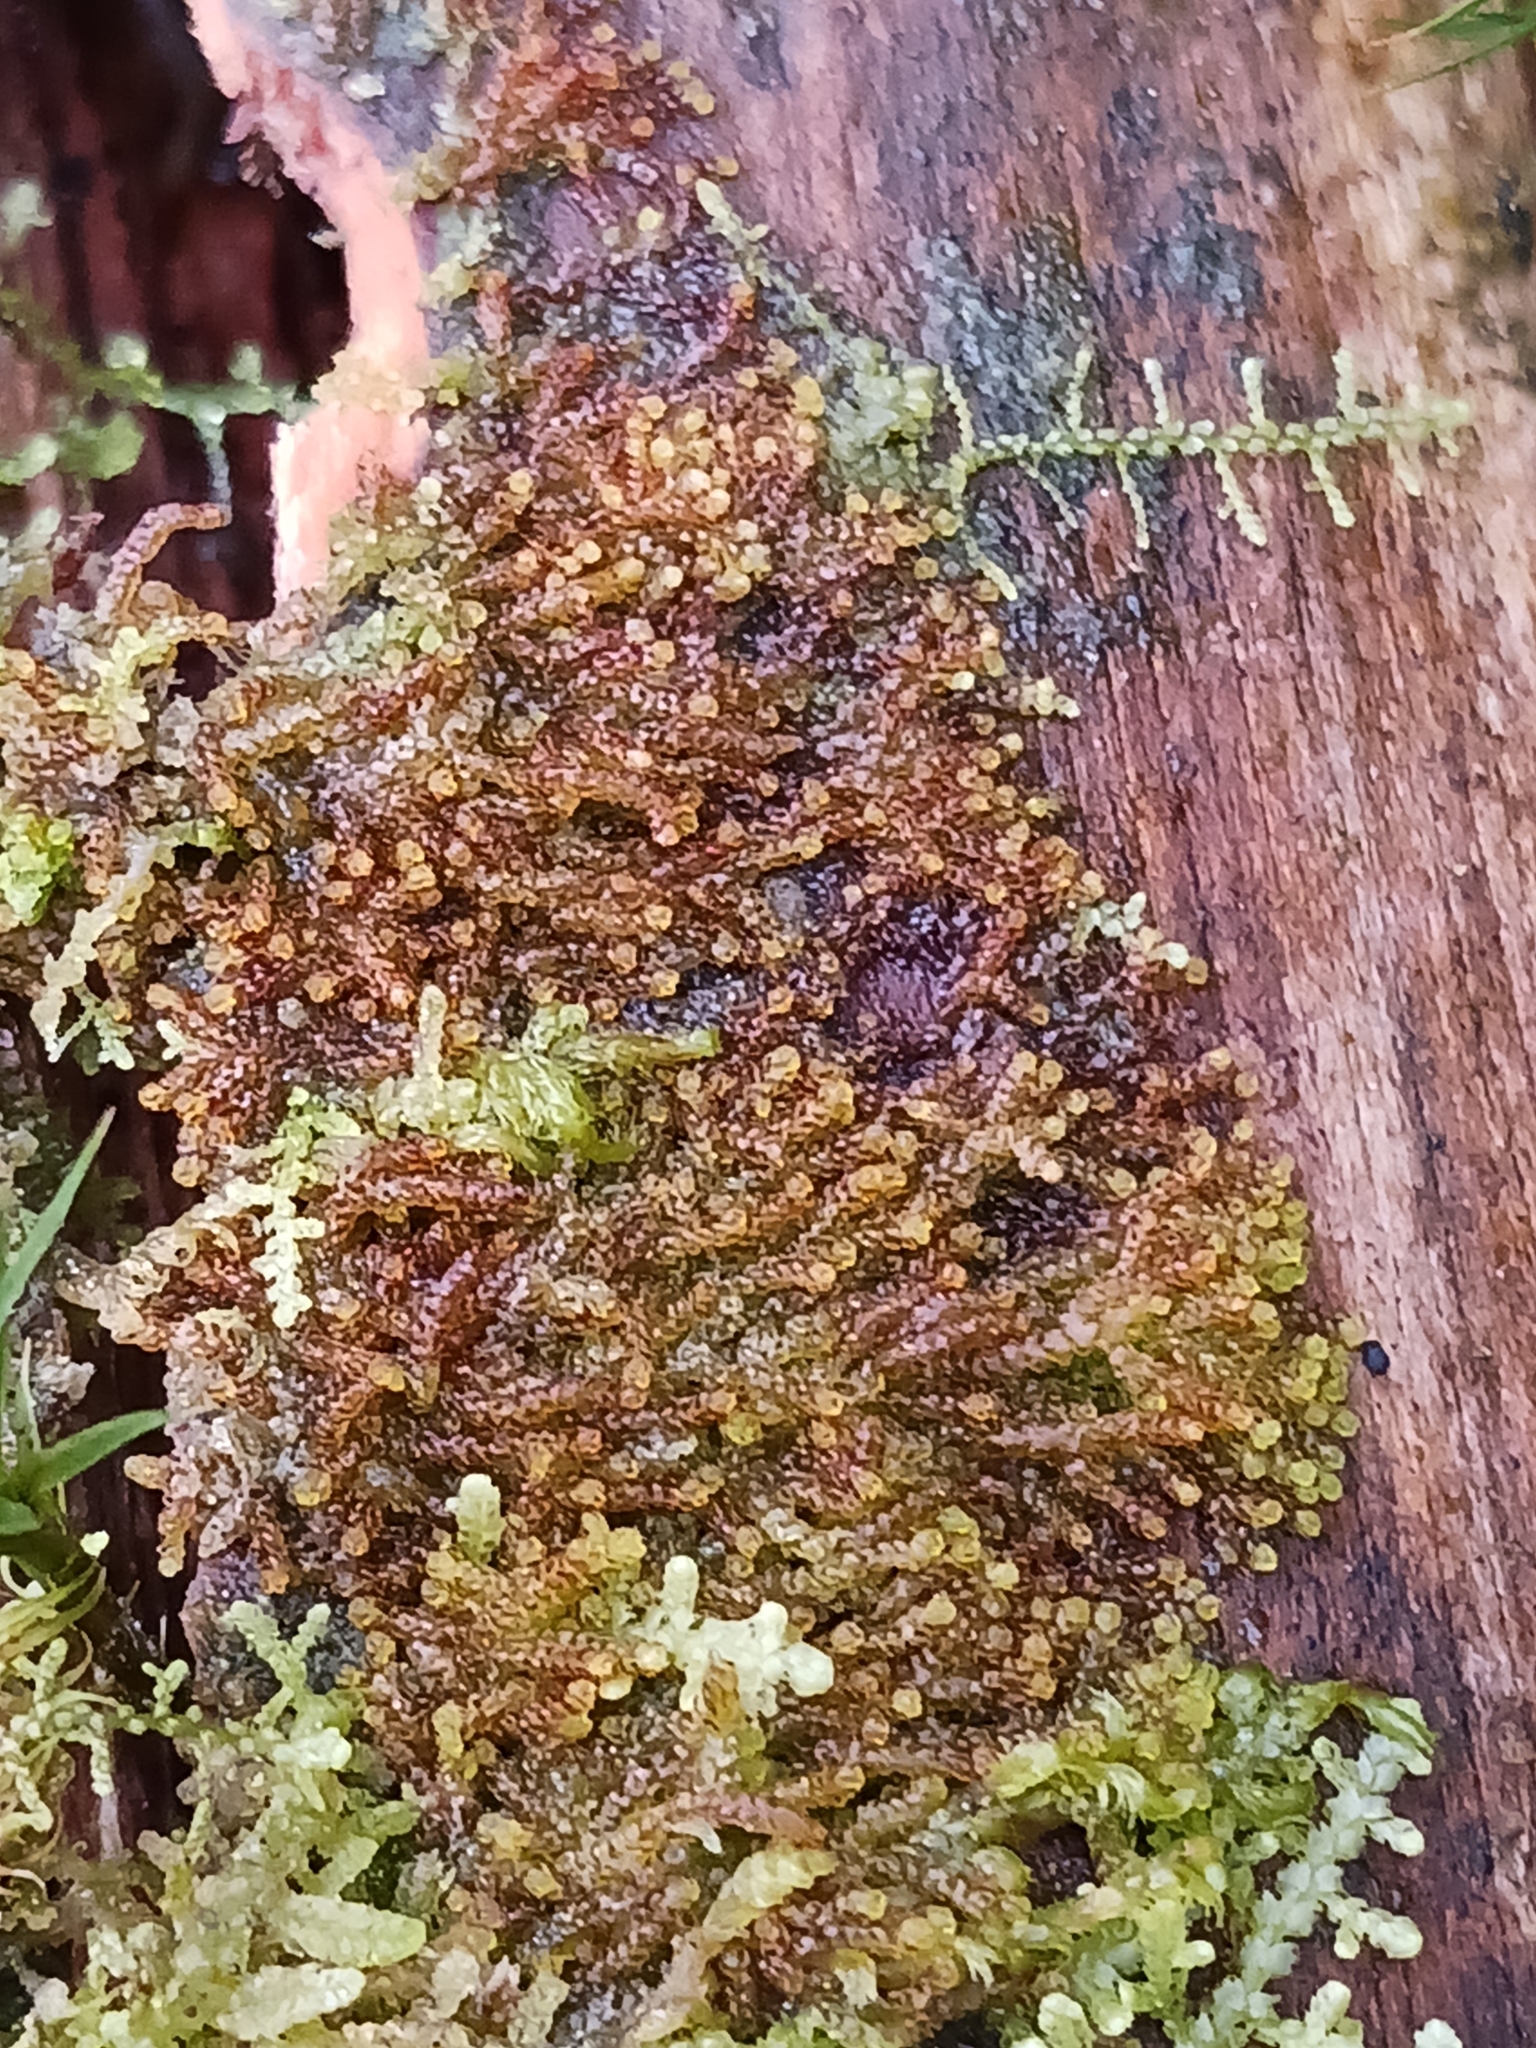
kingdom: Plantae
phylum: Marchantiophyta
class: Jungermanniopsida
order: Jungermanniales
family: Cephaloziaceae
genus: Nowellia
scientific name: Nowellia curvifolia
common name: Wood rustwort
